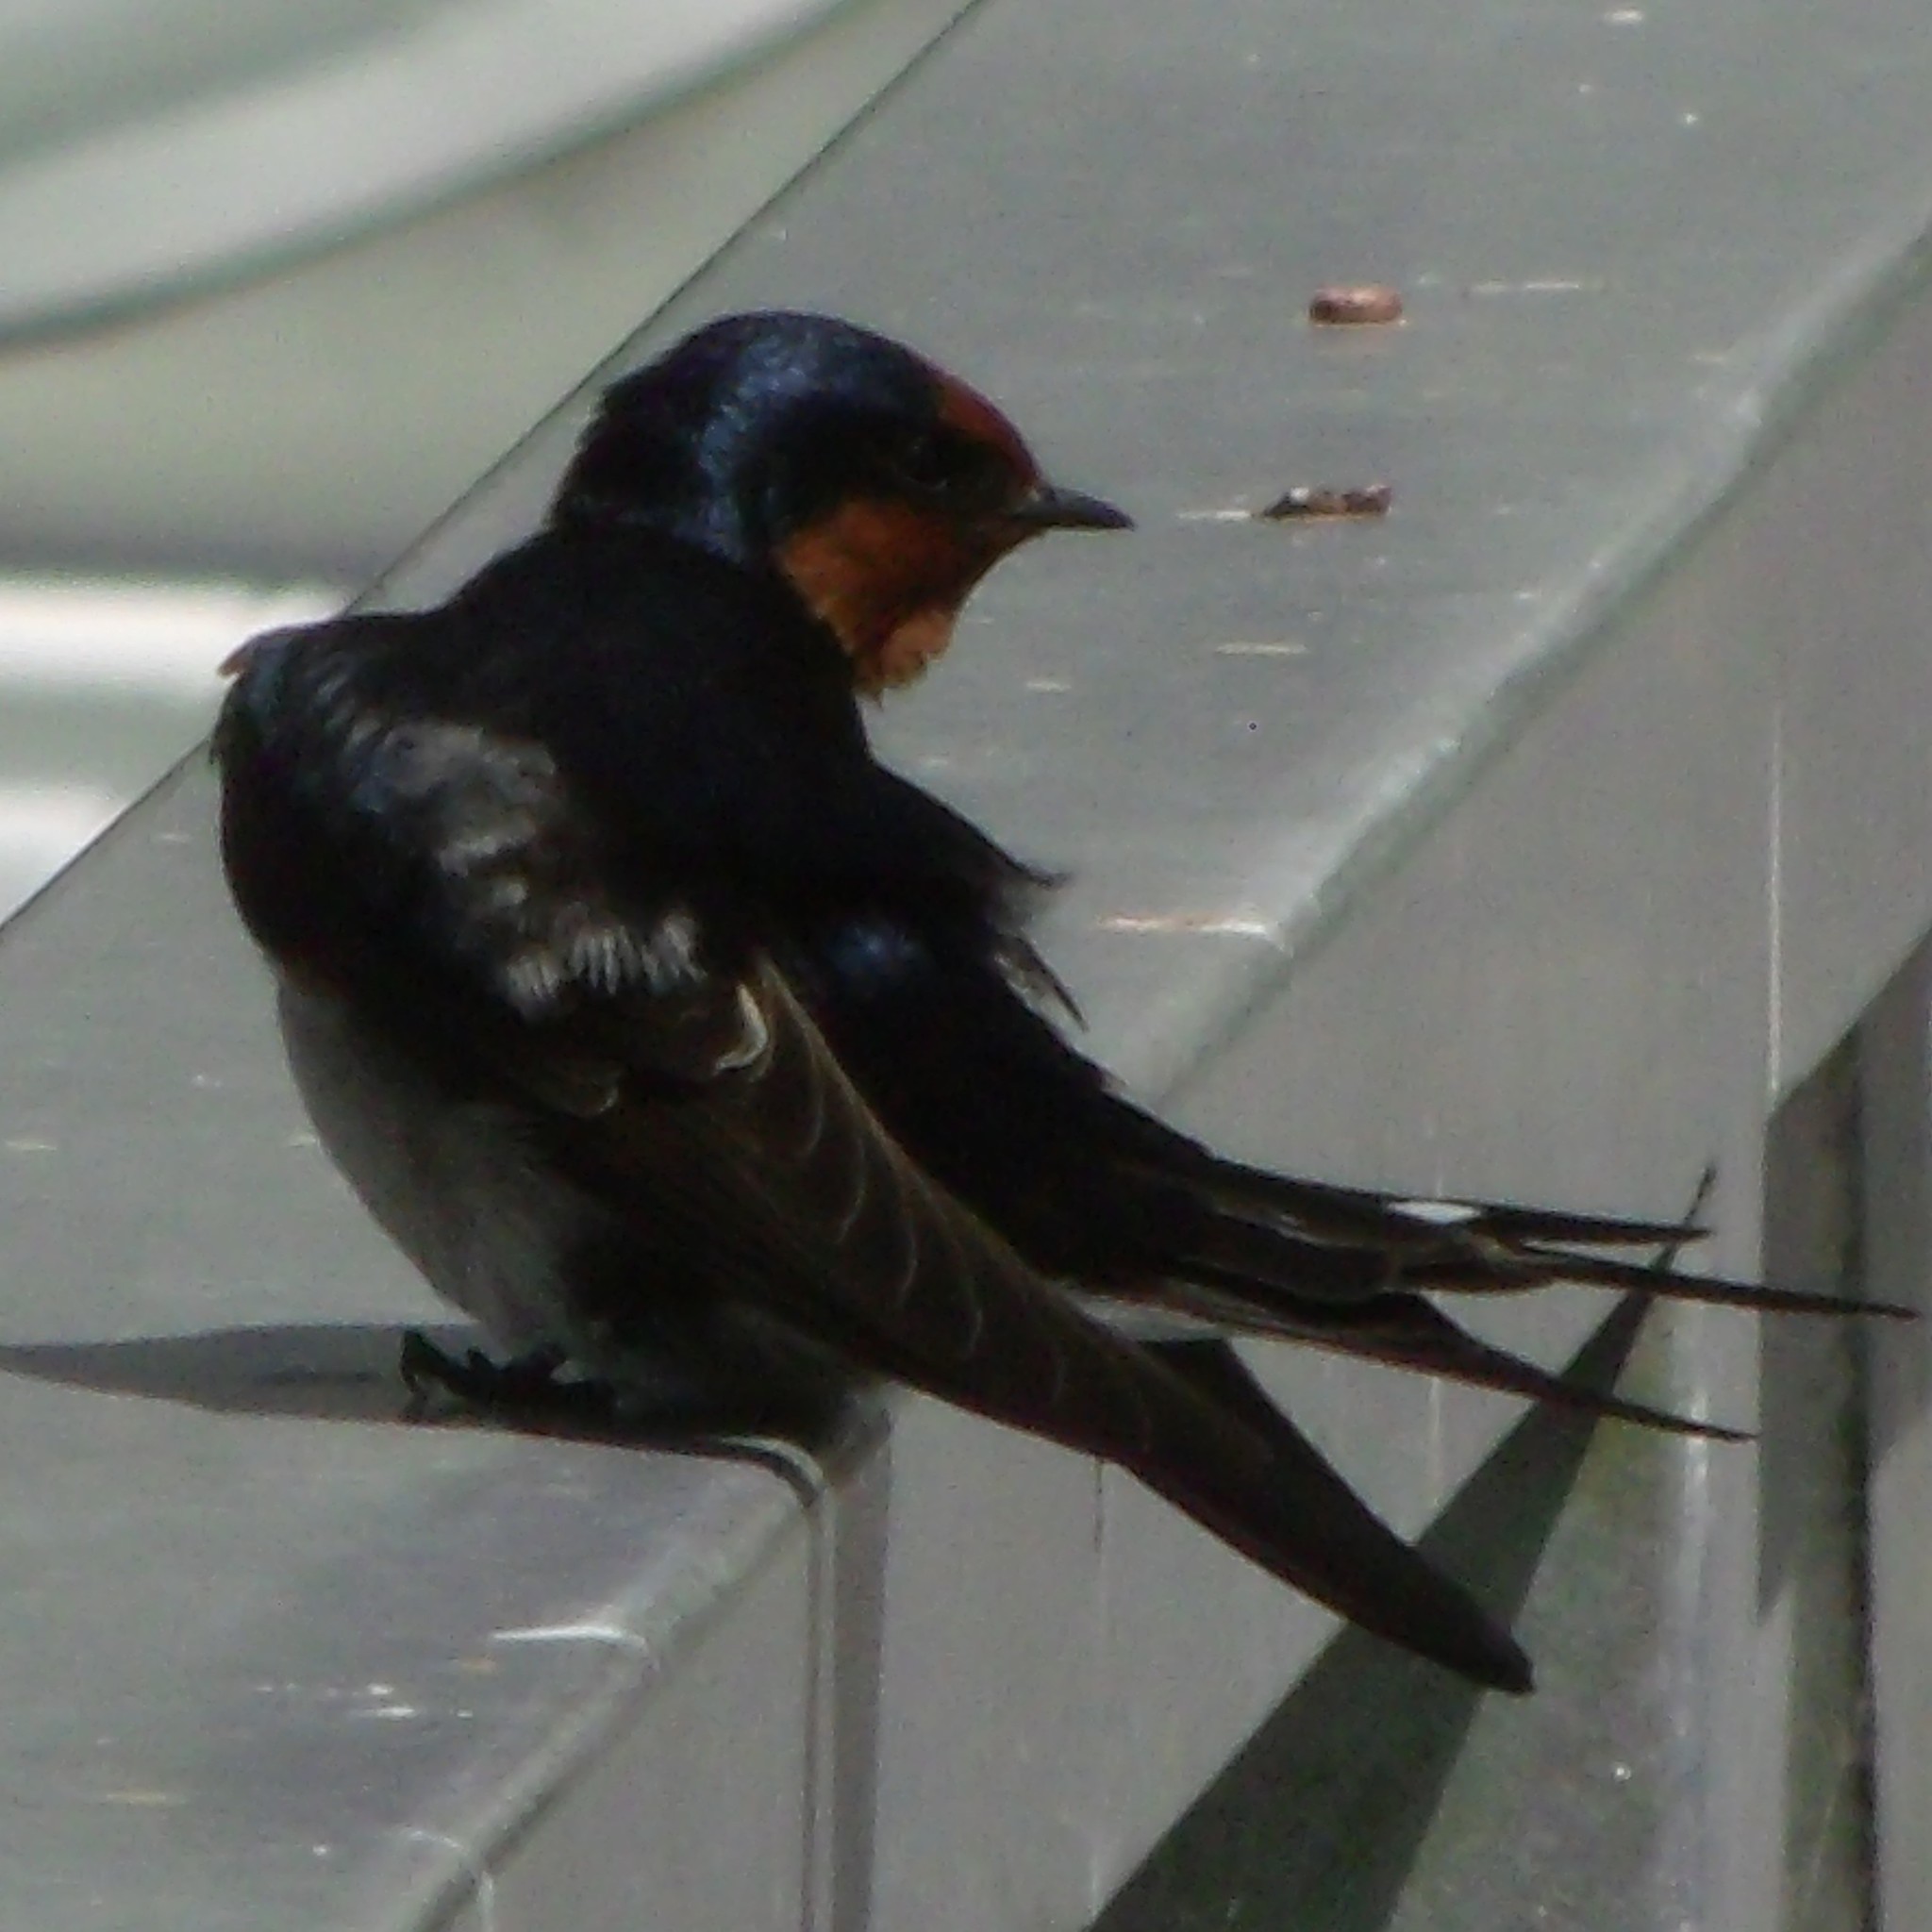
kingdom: Animalia
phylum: Chordata
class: Aves
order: Passeriformes
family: Hirundinidae
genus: Hirundo
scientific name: Hirundo neoxena
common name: Welcome swallow
